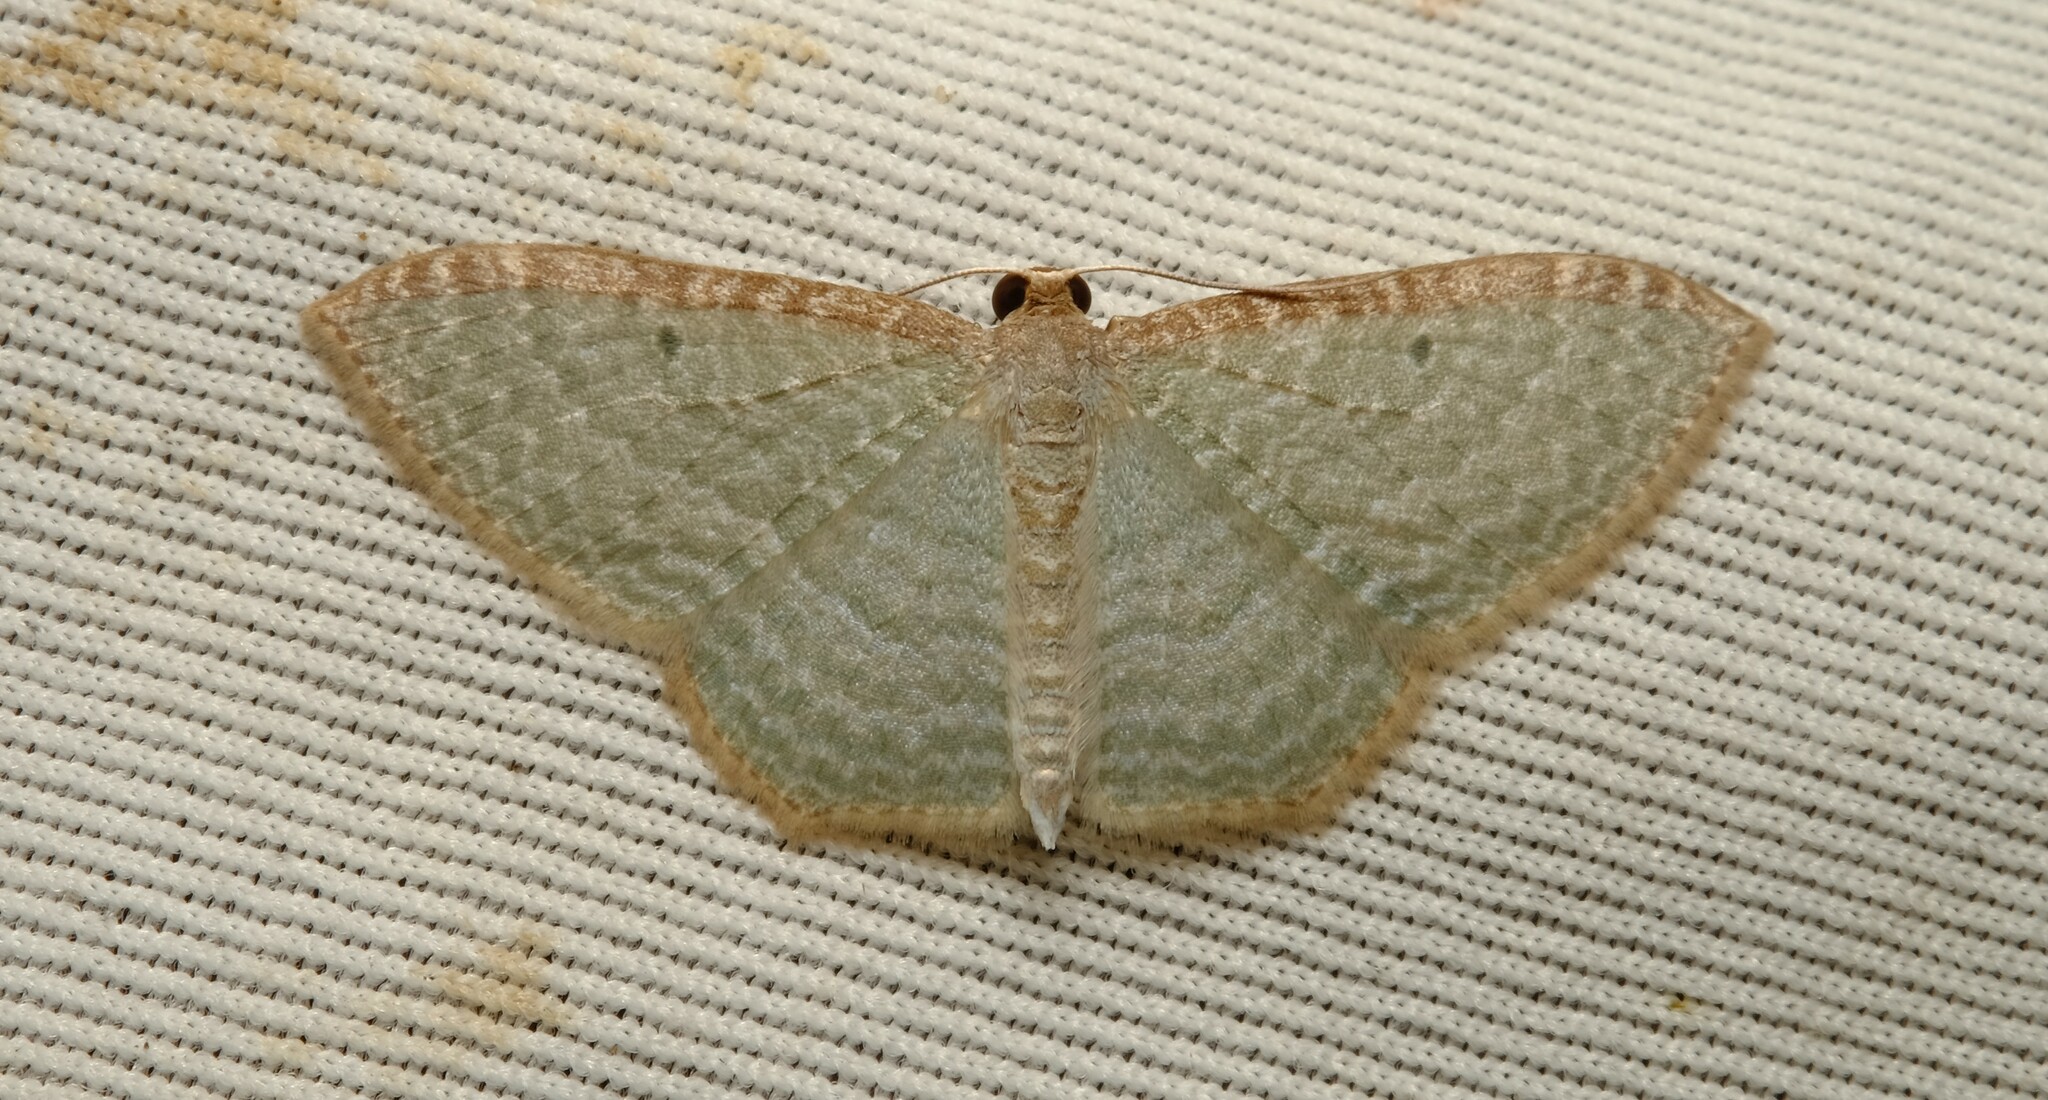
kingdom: Animalia
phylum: Arthropoda
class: Insecta
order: Lepidoptera
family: Geometridae
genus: Poecilasthena
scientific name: Poecilasthena pulchraria
